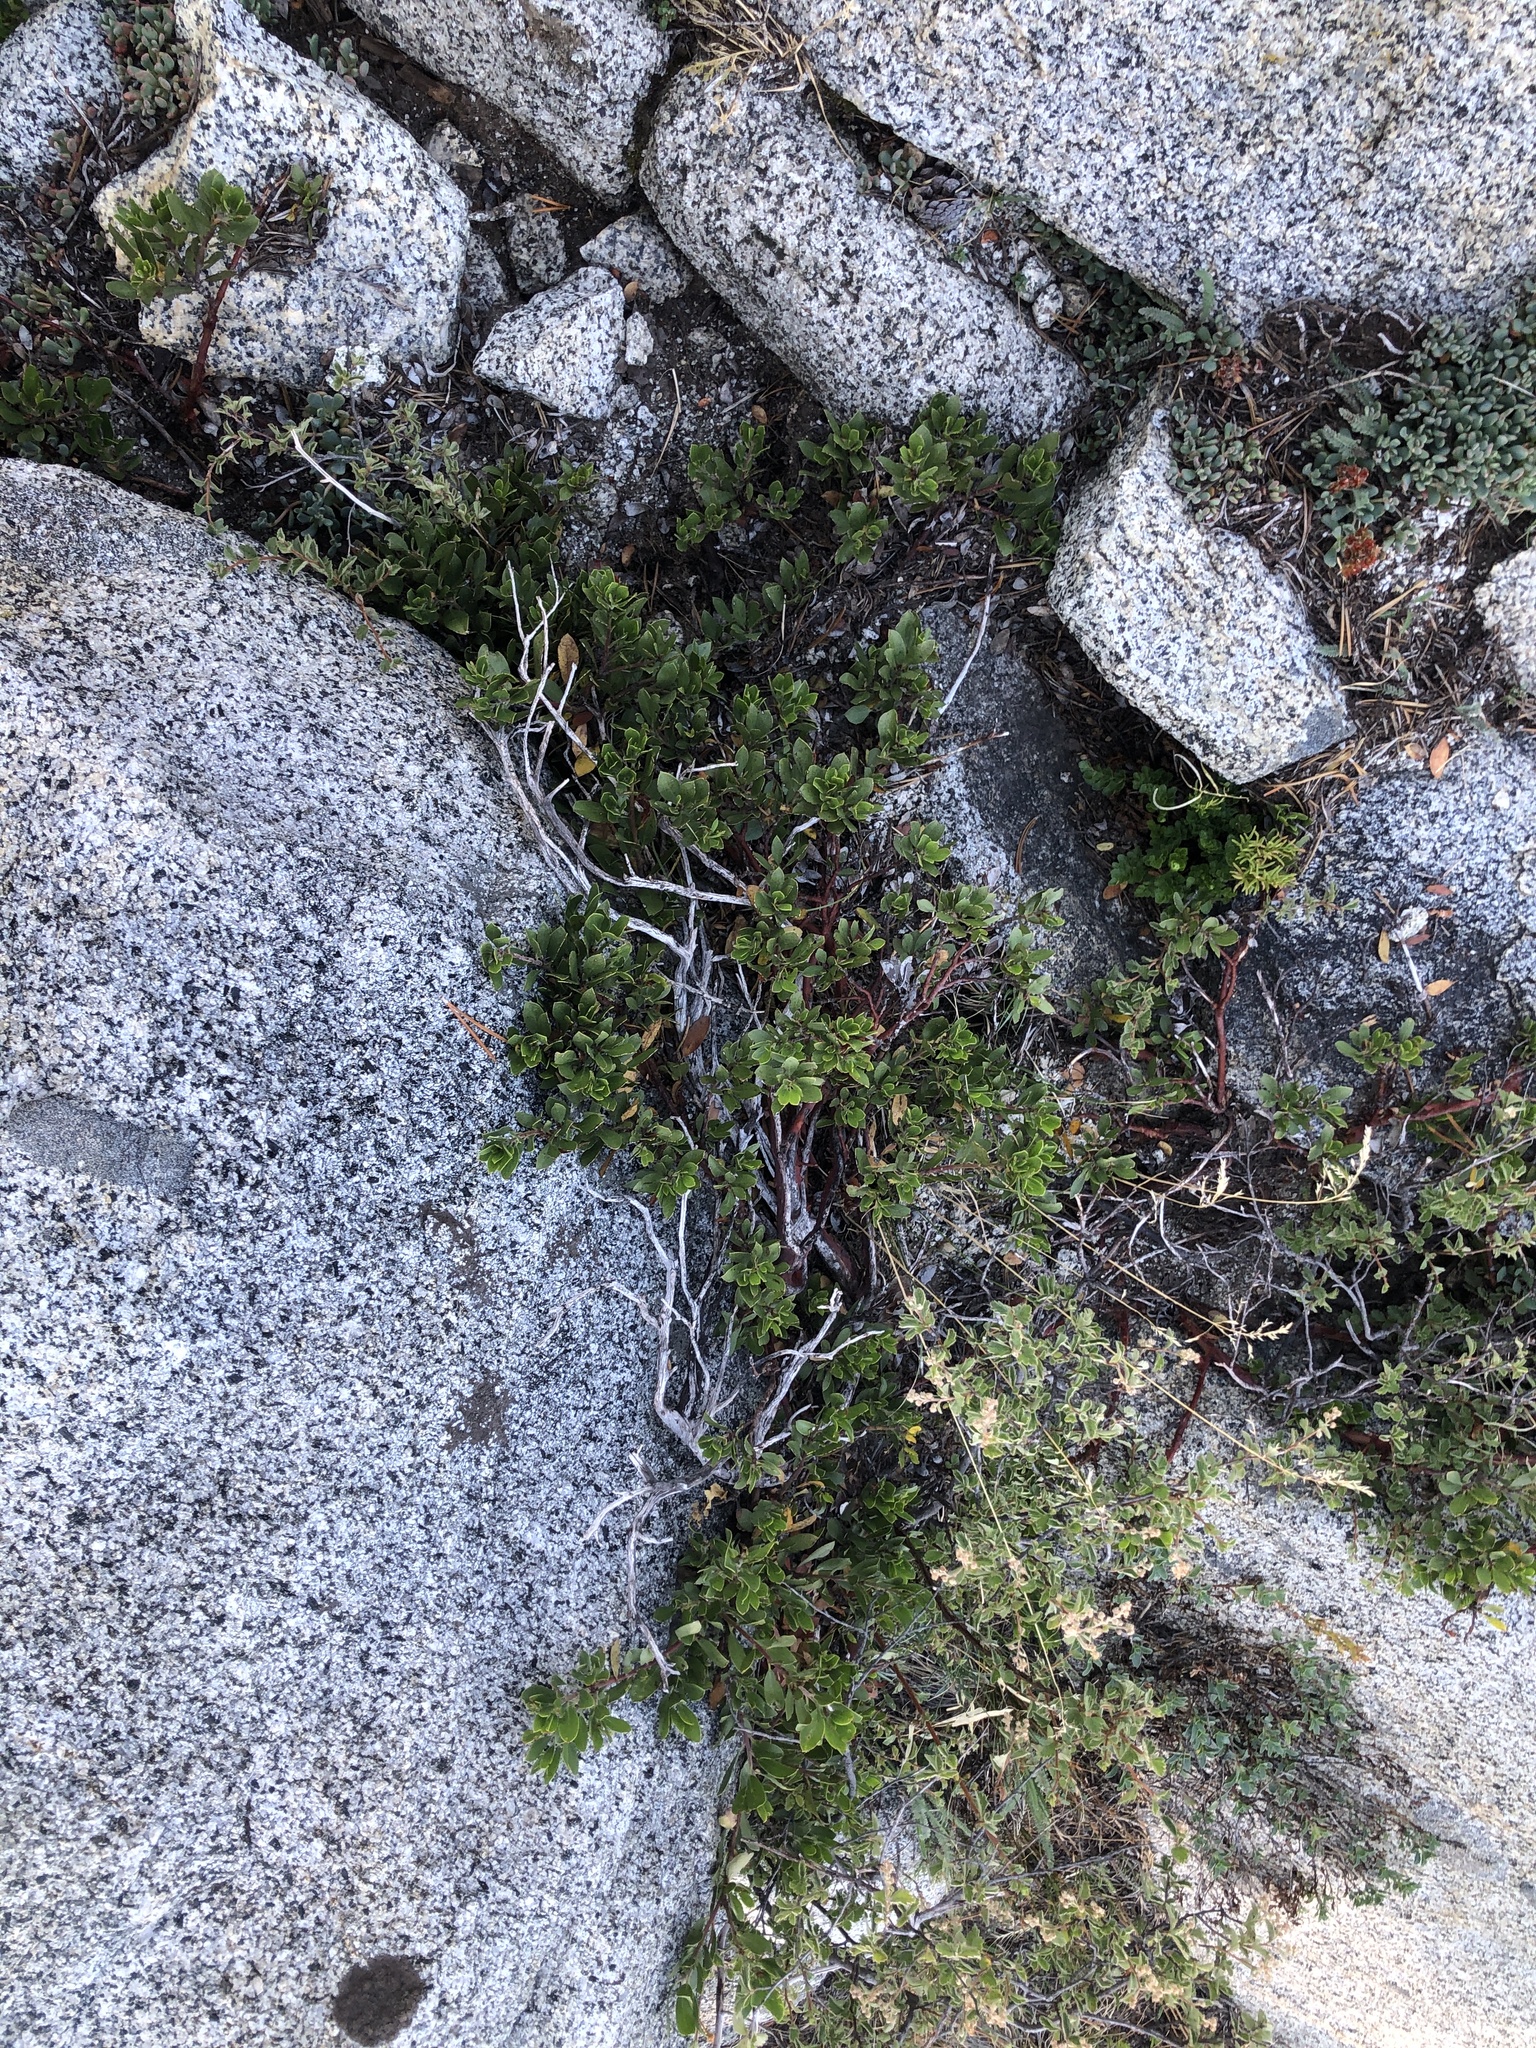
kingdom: Plantae
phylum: Tracheophyta
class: Magnoliopsida
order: Ericales
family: Ericaceae
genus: Arctostaphylos
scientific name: Arctostaphylos nevadensis
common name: Pinemat manzanita
